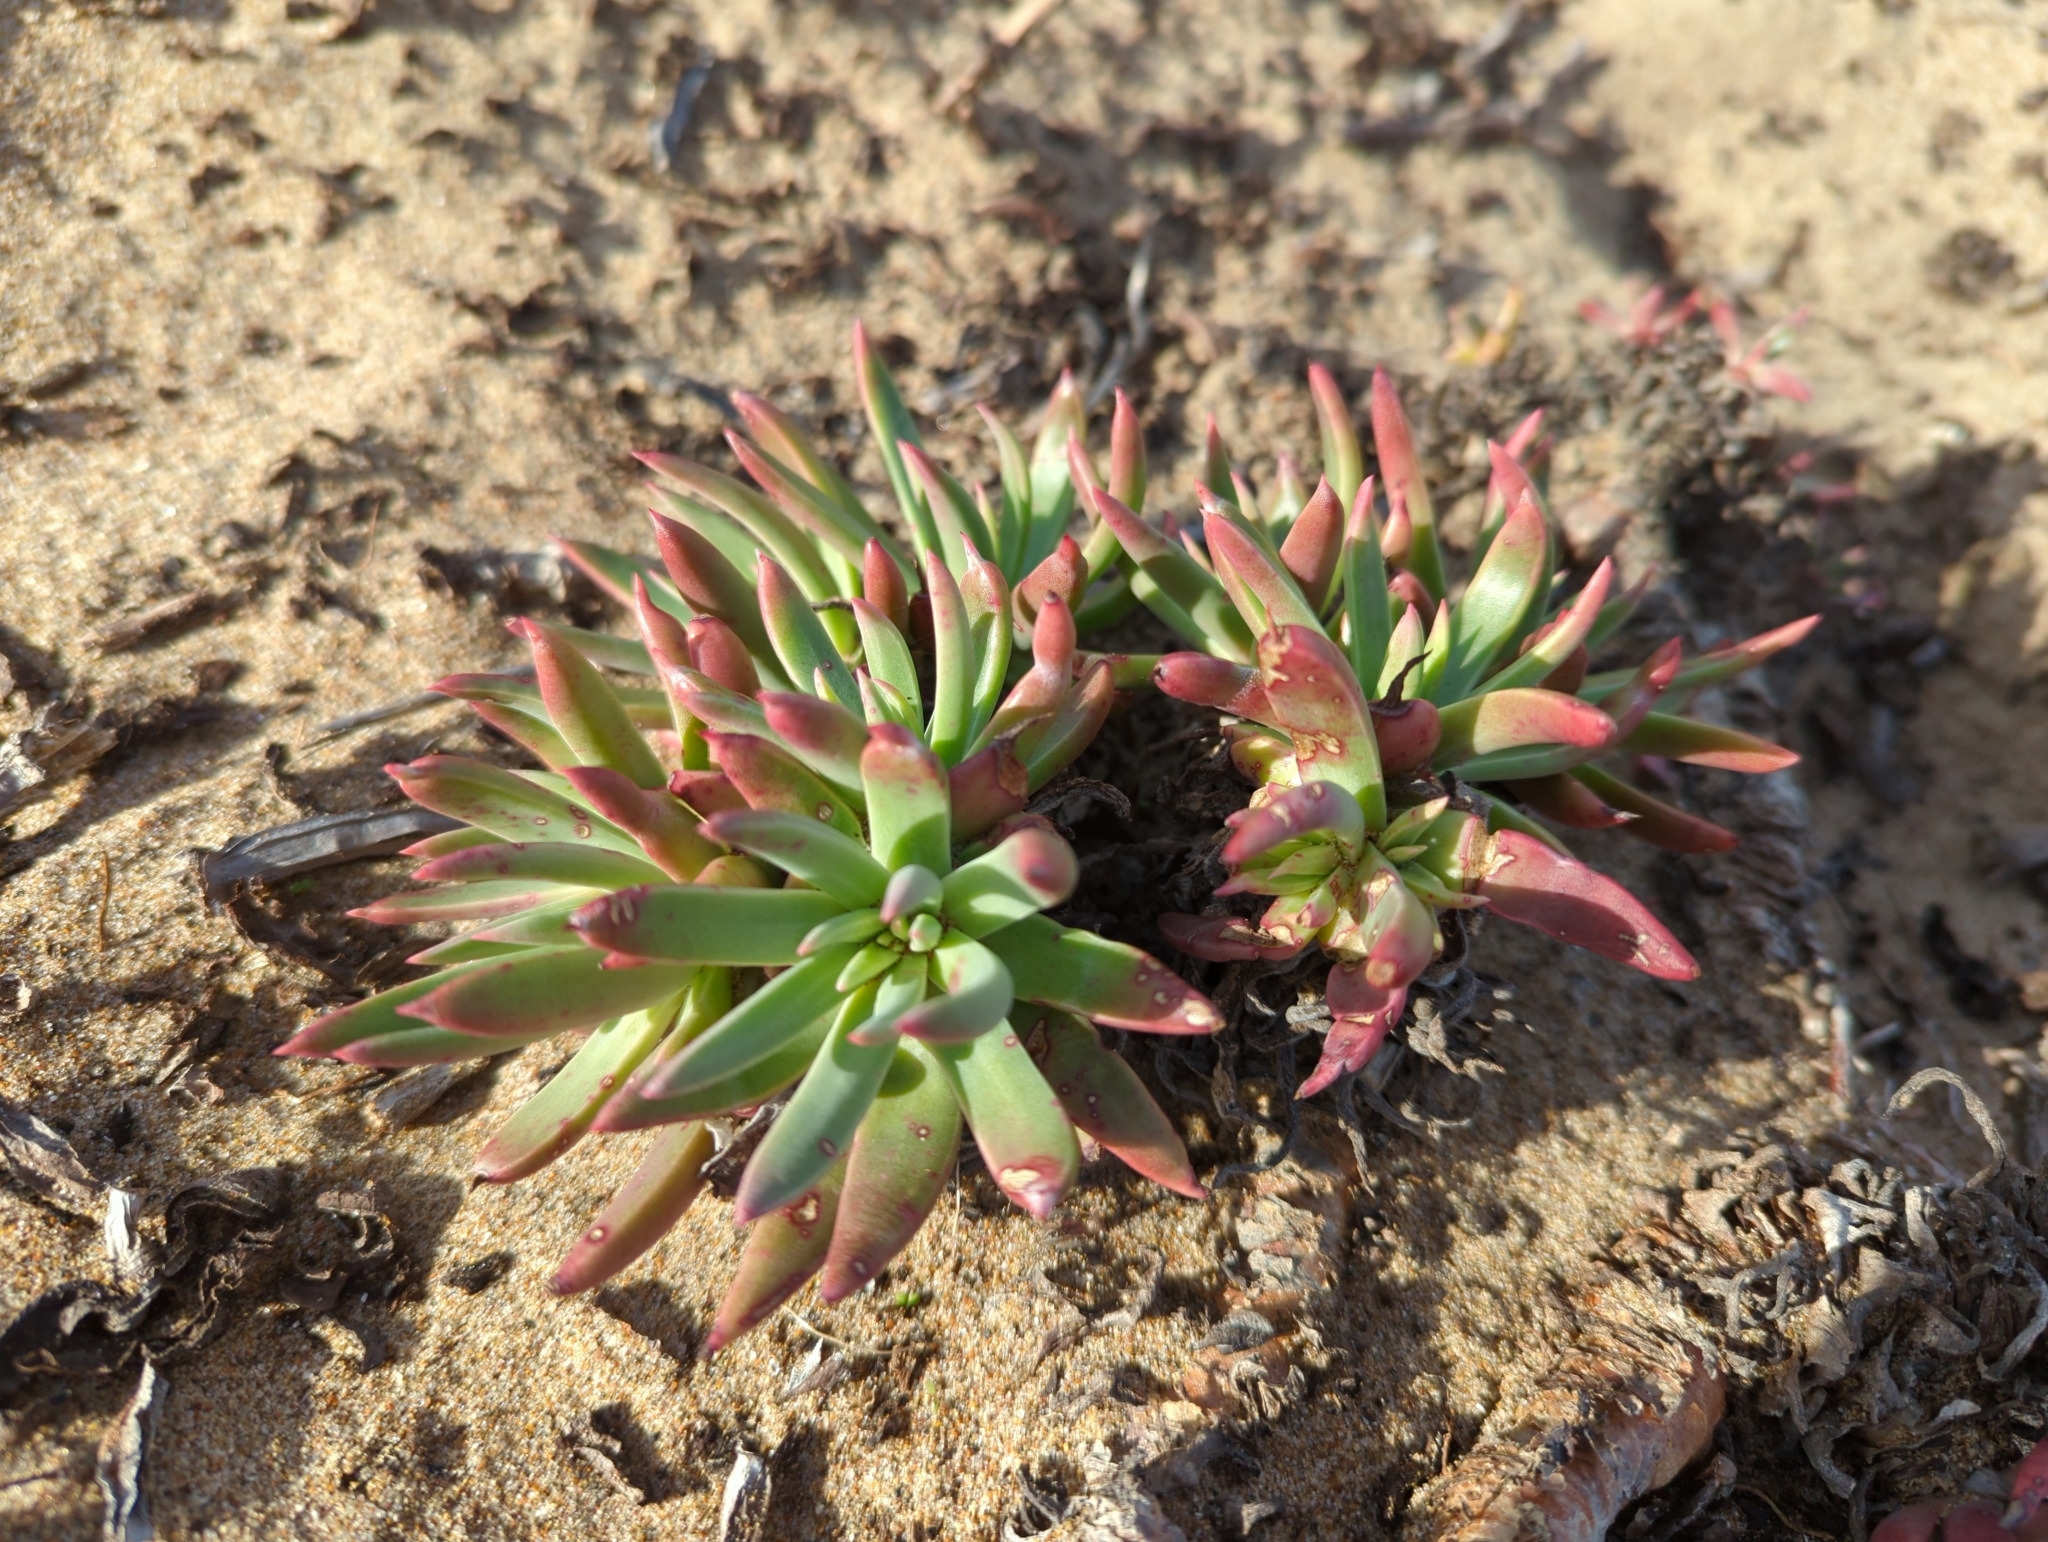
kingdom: Plantae
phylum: Tracheophyta
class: Magnoliopsida
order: Saxifragales
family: Crassulaceae
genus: Dudleya
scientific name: Dudleya caespitosa
